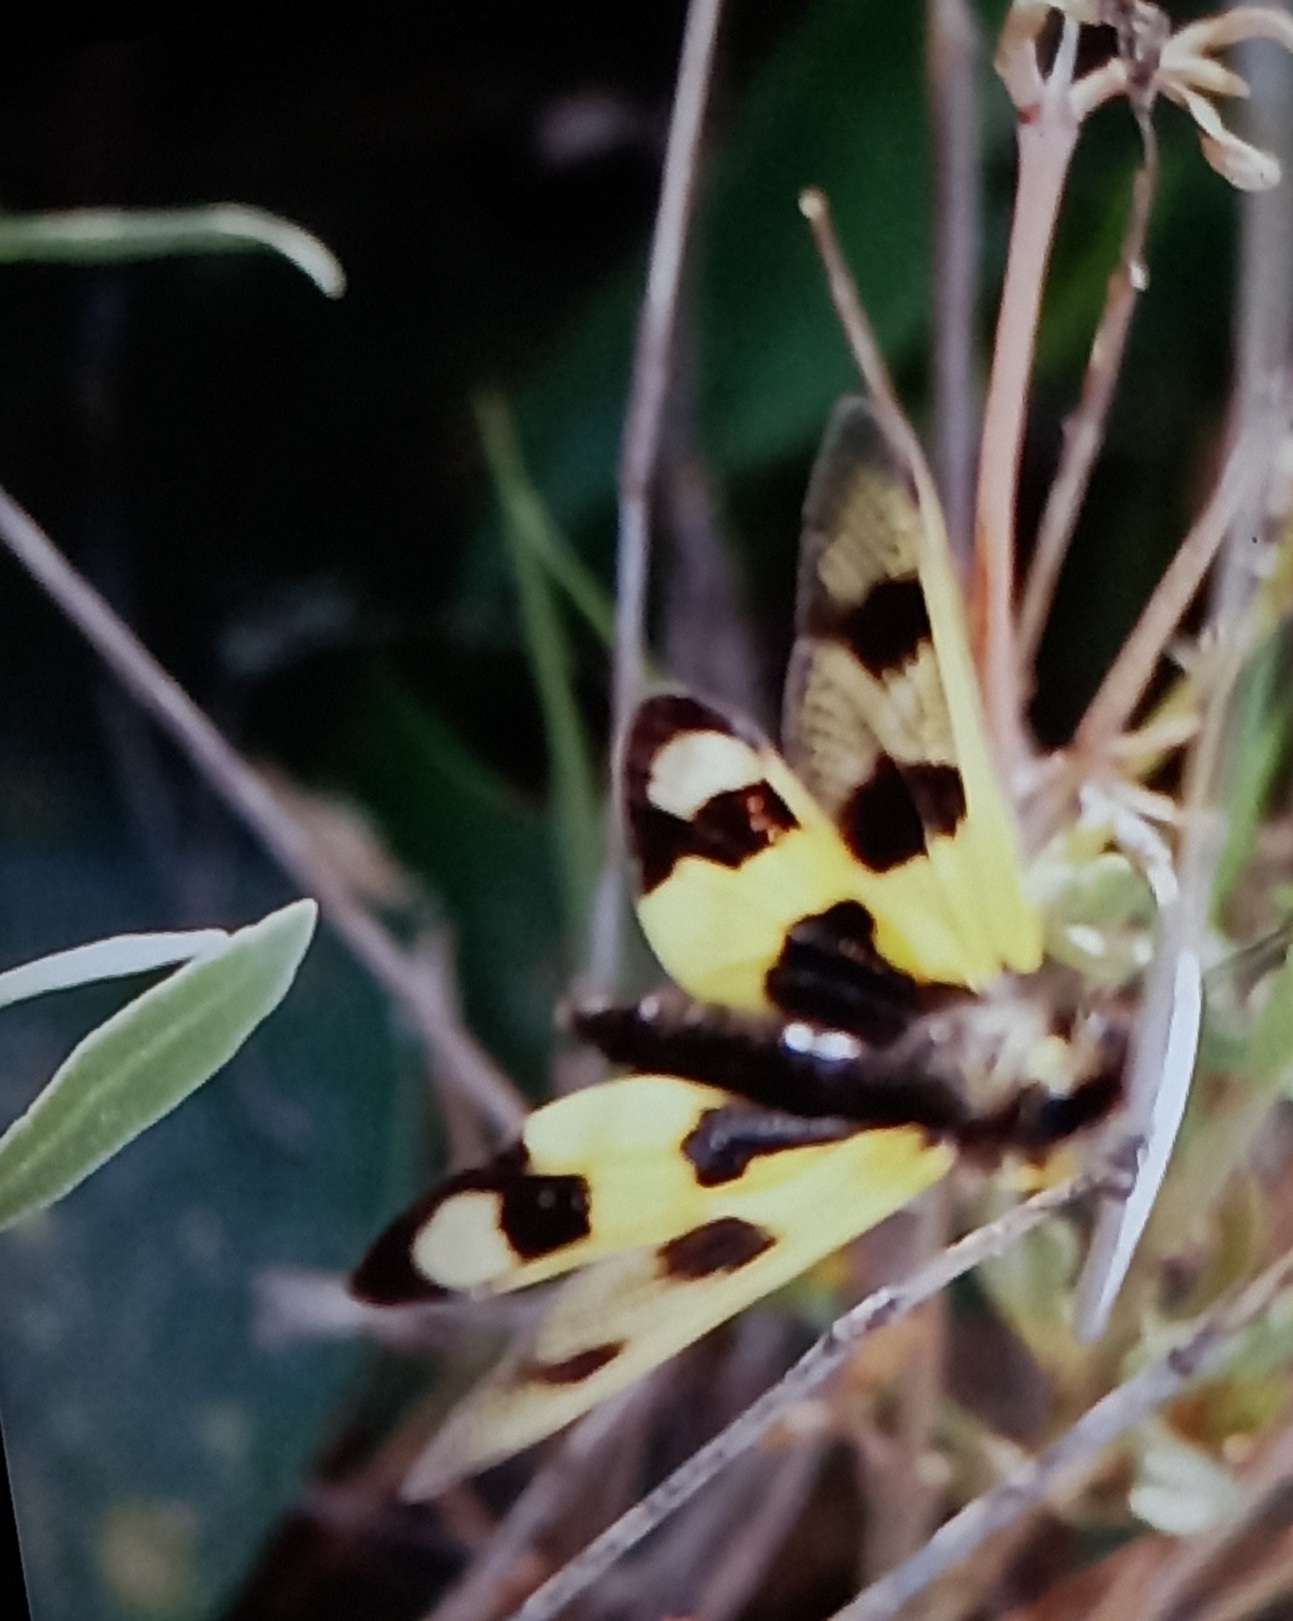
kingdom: Animalia
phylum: Arthropoda
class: Insecta
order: Neuroptera
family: Ascalaphidae
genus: Libelloides
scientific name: Libelloides macaronius
